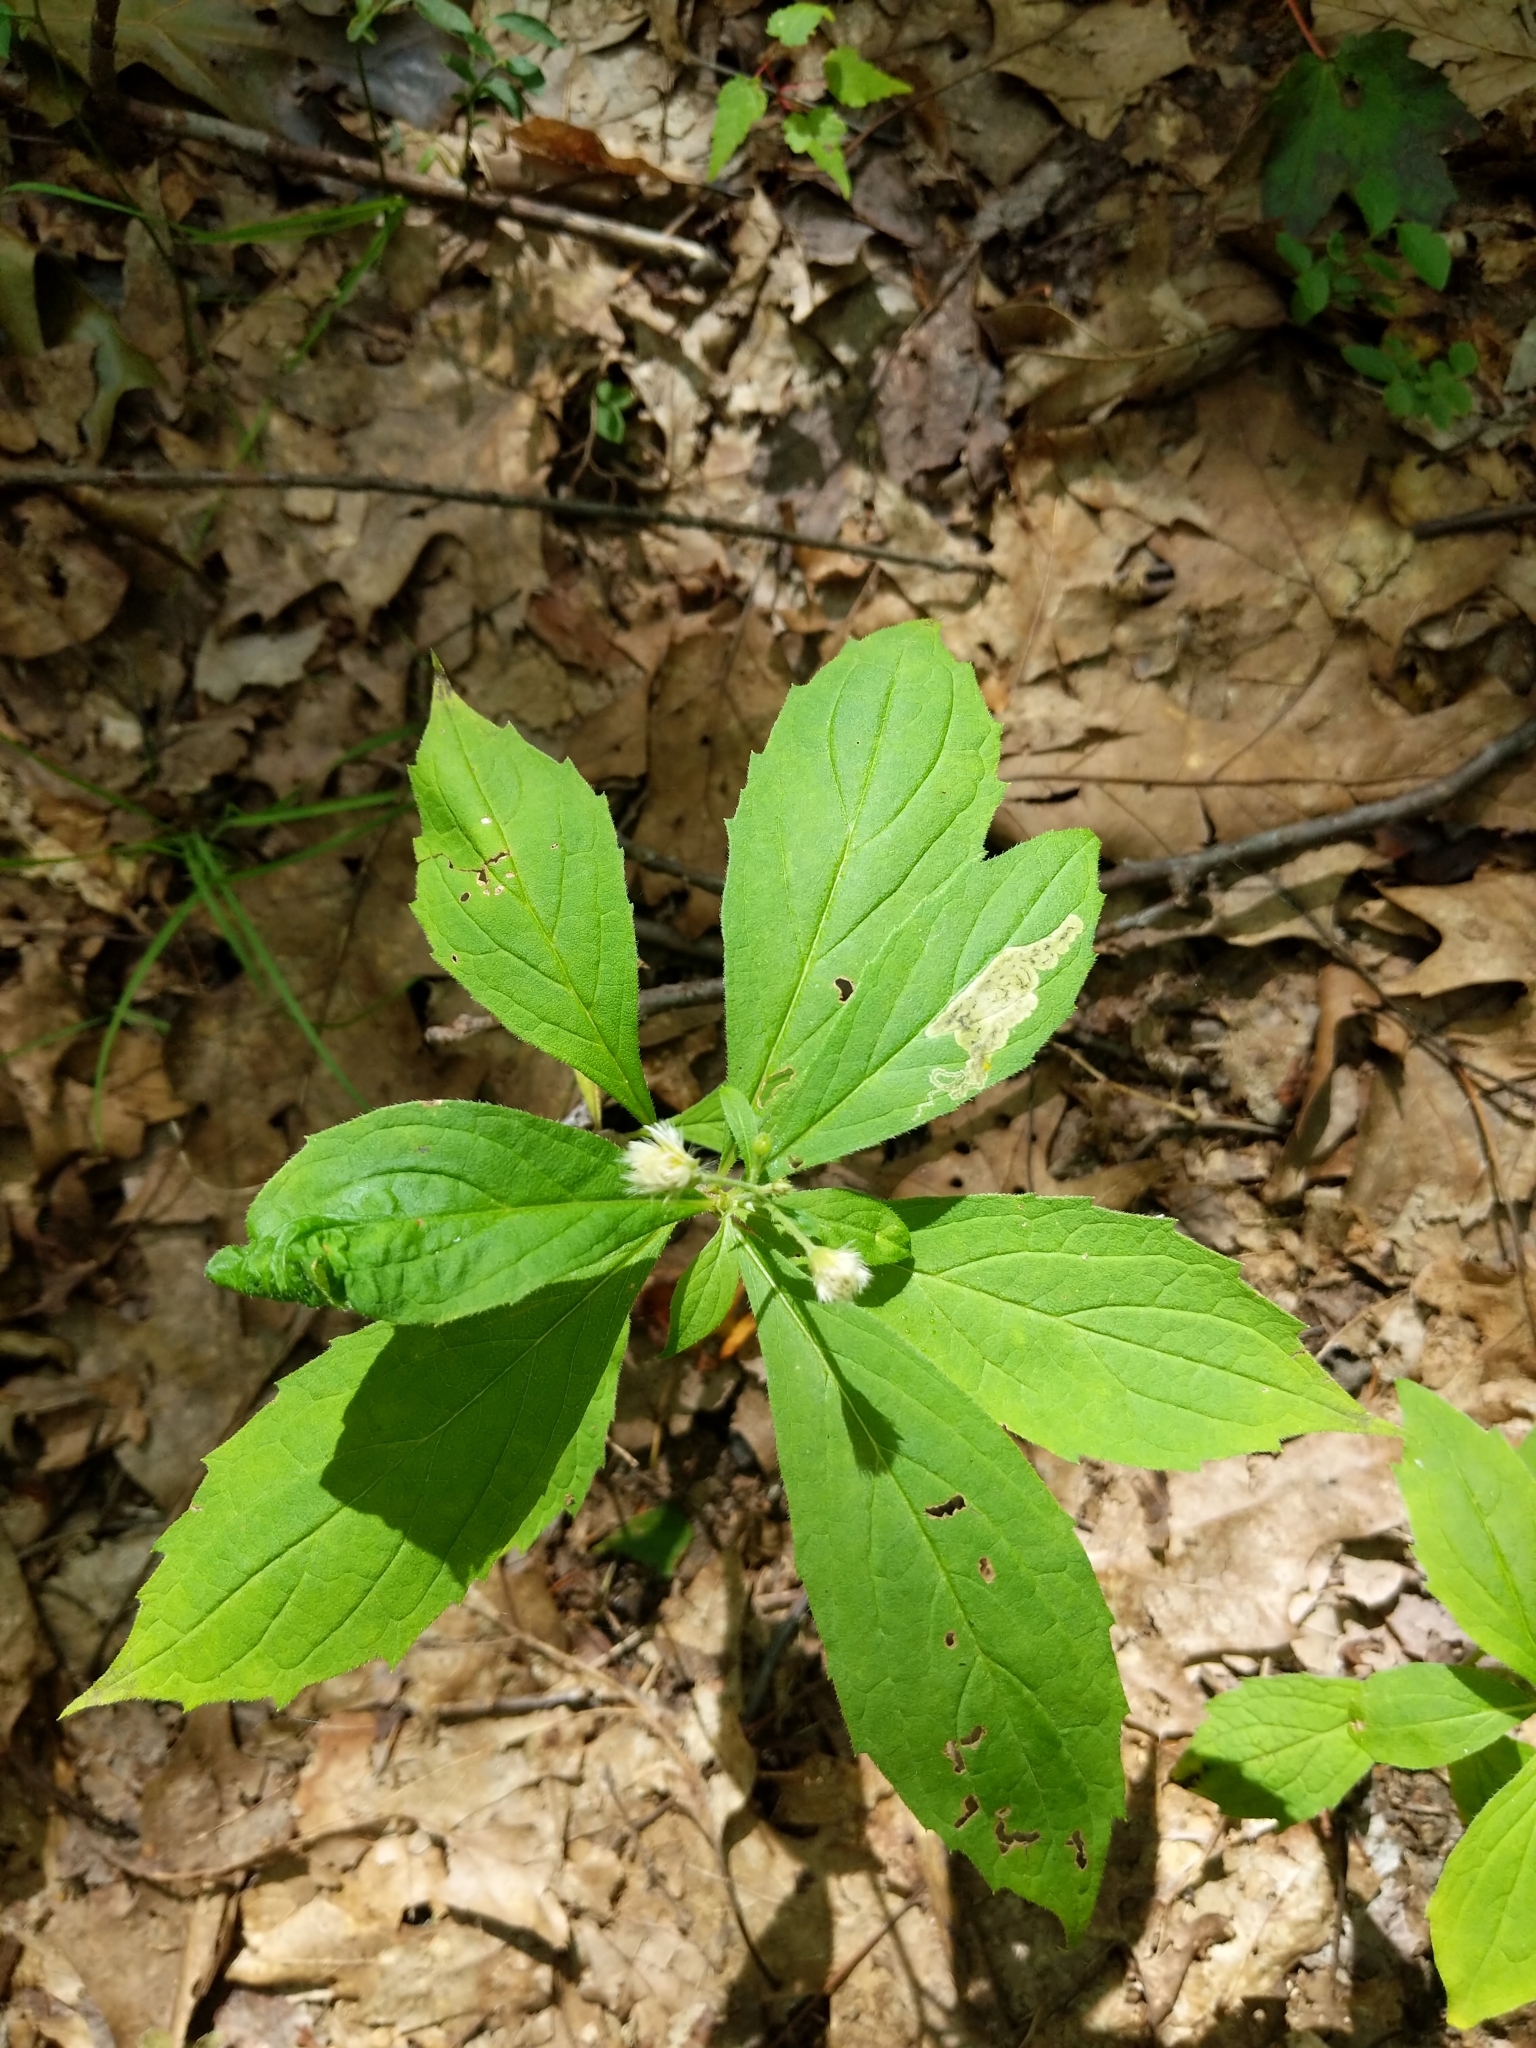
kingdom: Plantae
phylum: Tracheophyta
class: Magnoliopsida
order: Asterales
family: Asteraceae
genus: Oclemena
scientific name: Oclemena acuminata
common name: Mountain aster
